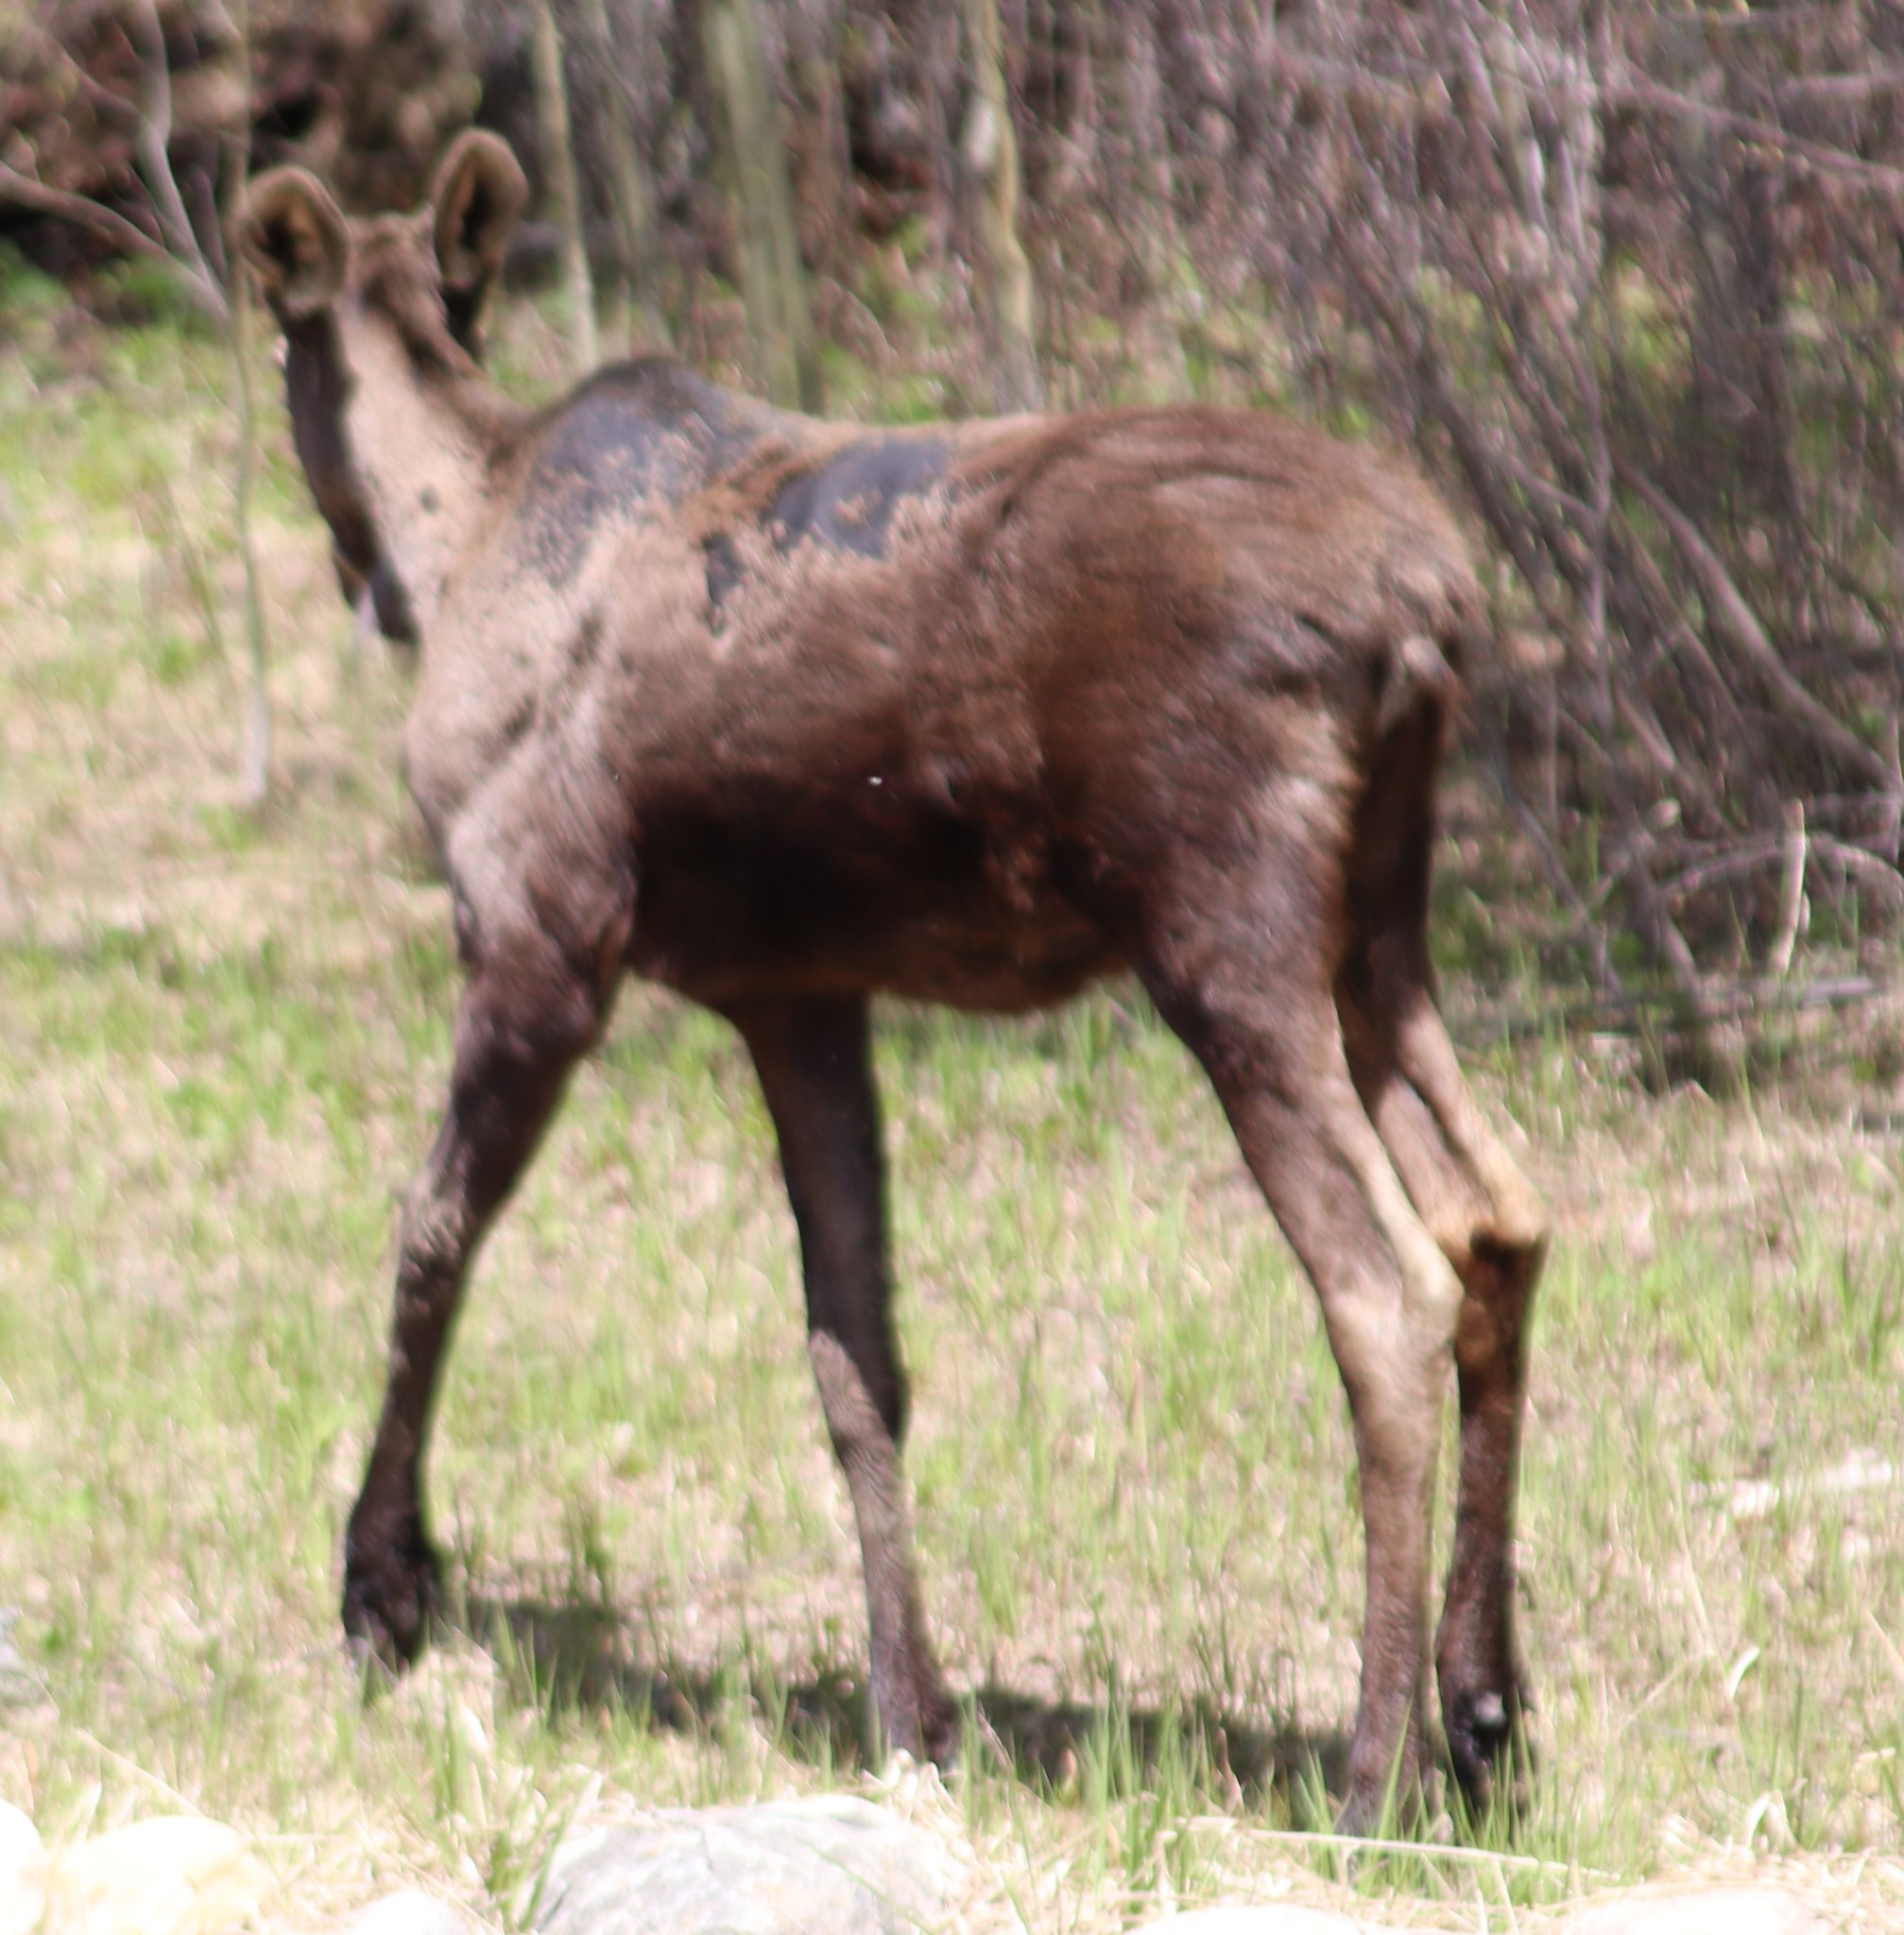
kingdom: Animalia
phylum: Chordata
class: Mammalia
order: Artiodactyla
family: Cervidae
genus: Alces
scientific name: Alces alces
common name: Moose
